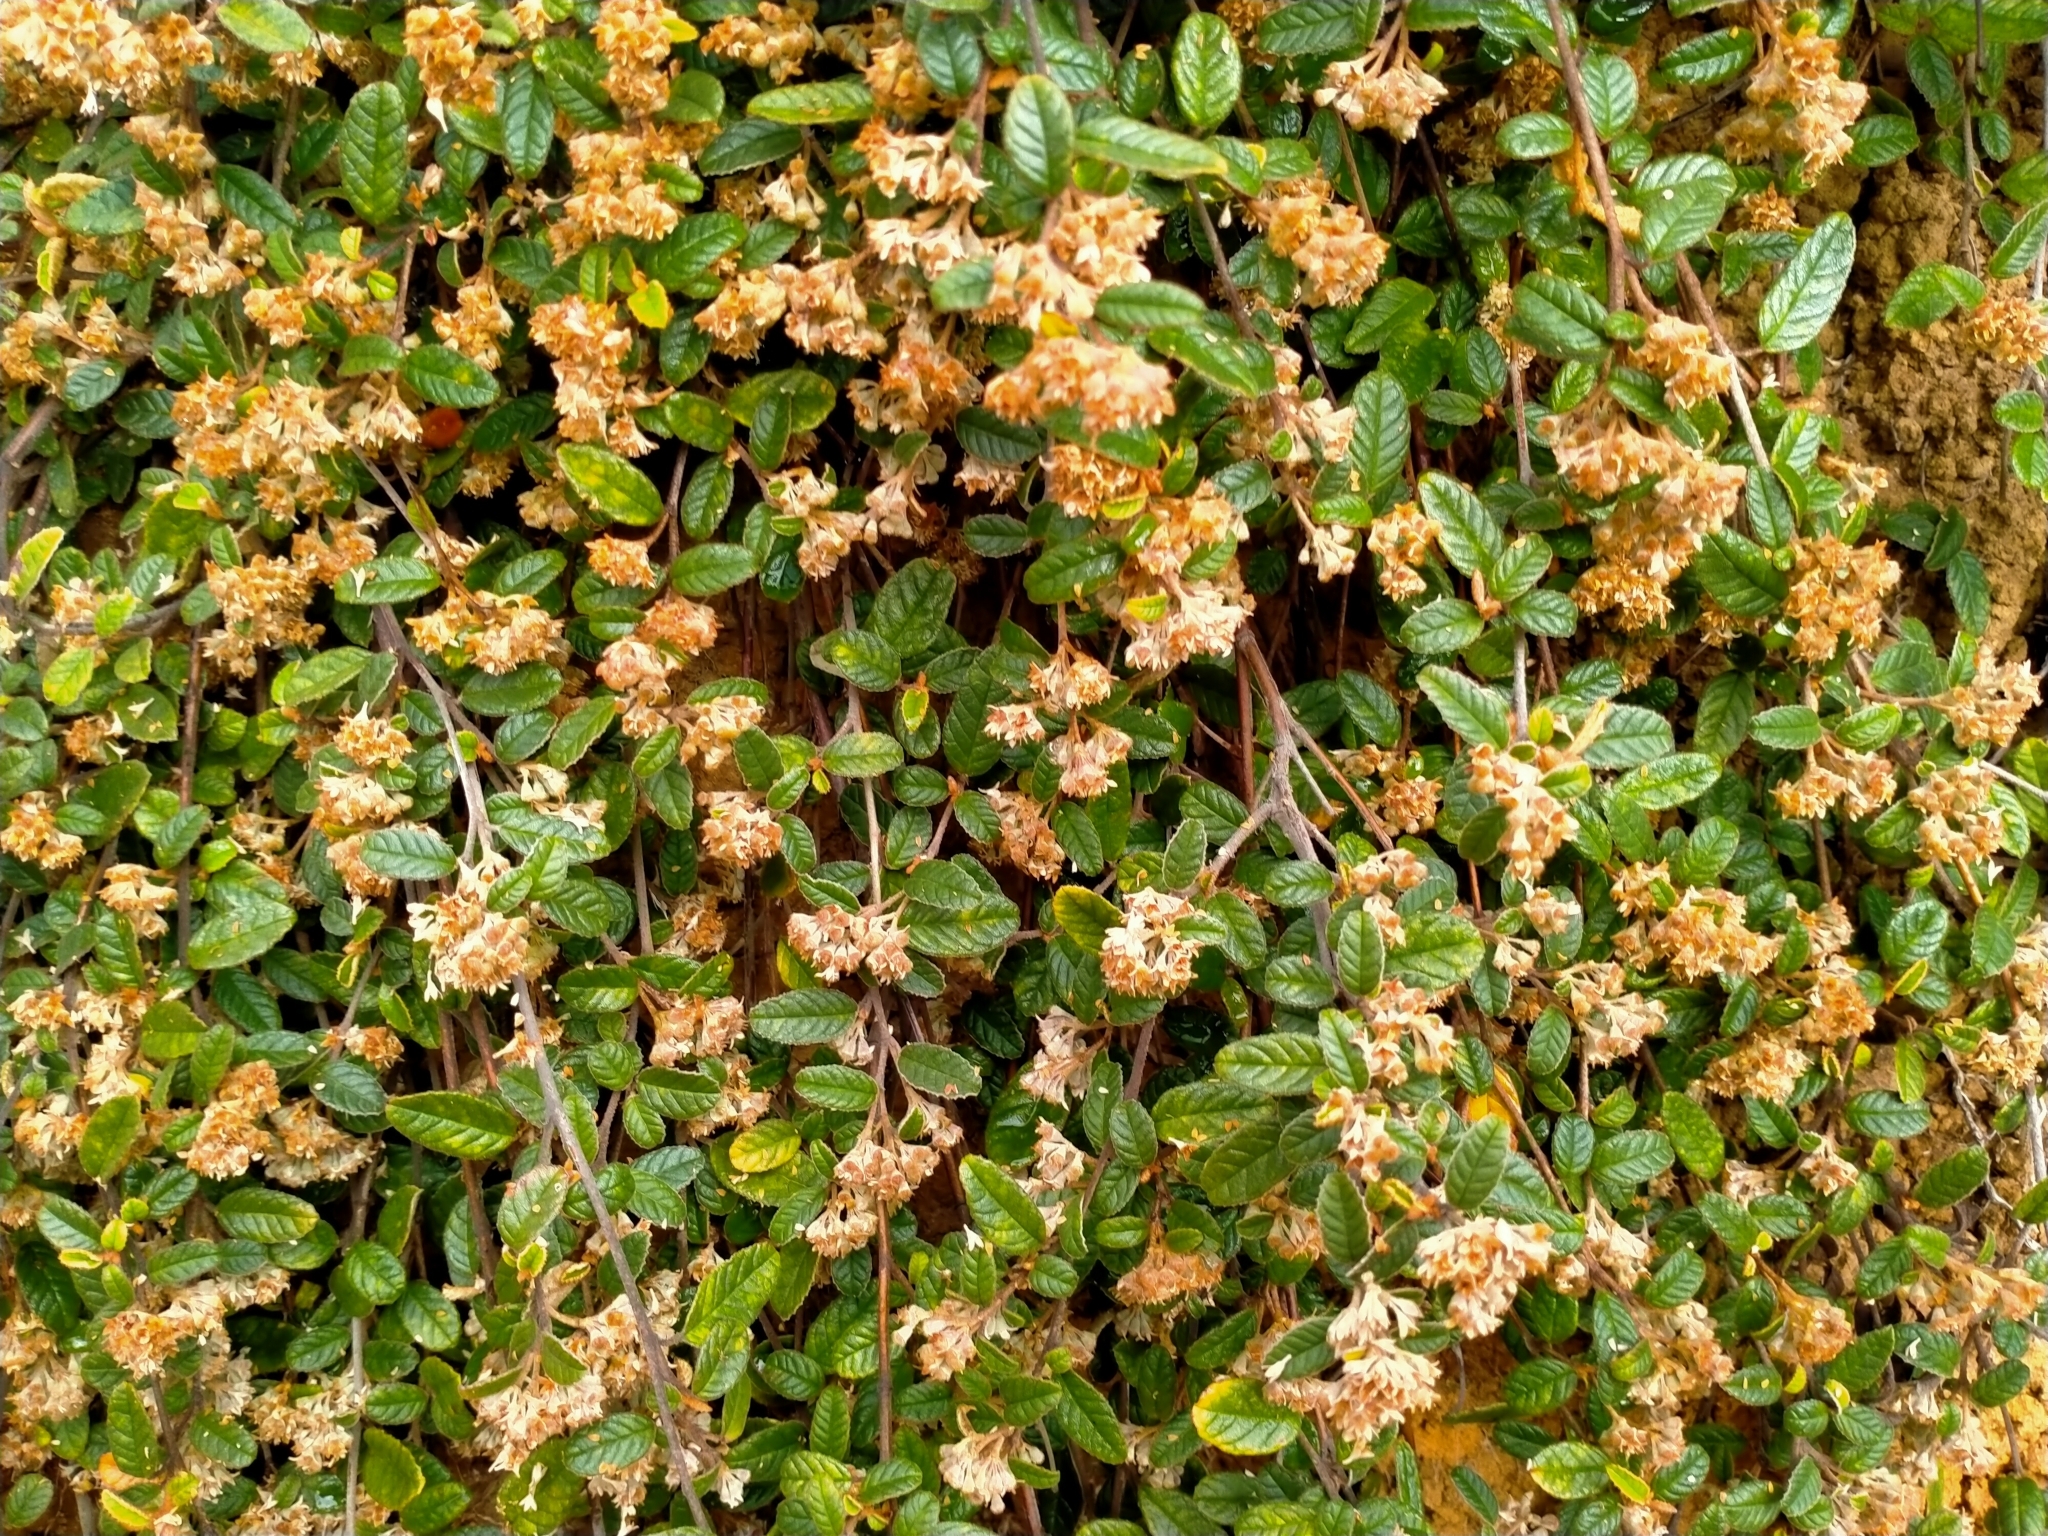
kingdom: Plantae
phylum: Tracheophyta
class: Magnoliopsida
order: Rosales
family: Rhamnaceae
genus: Pomaderris
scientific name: Pomaderris edgerleyi
